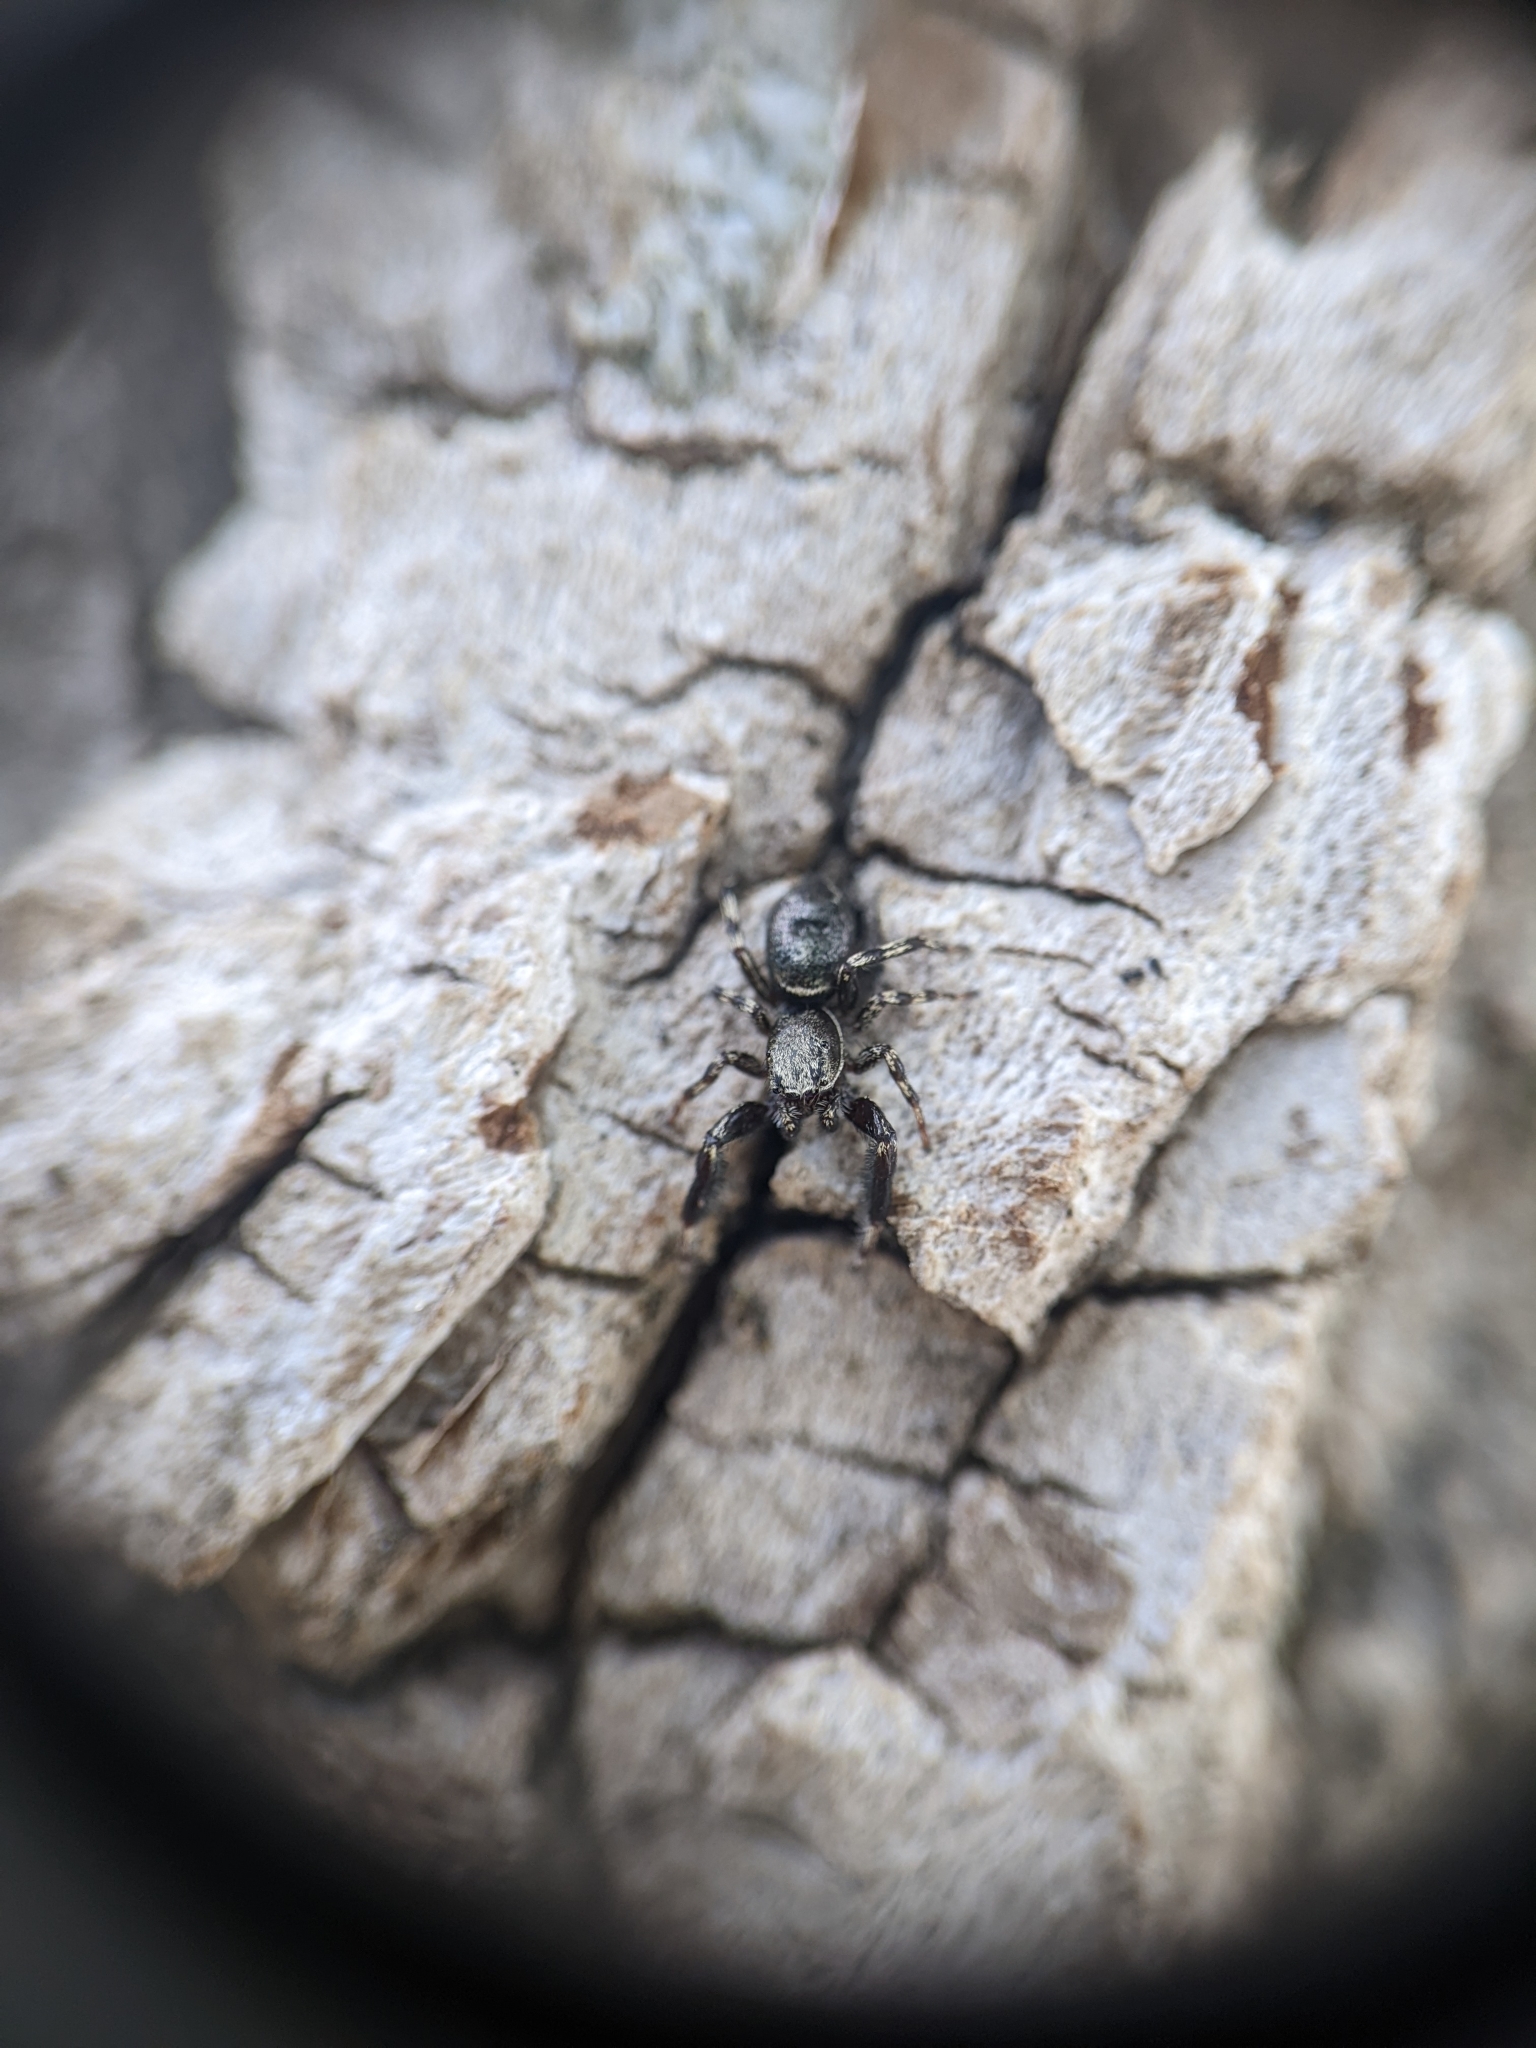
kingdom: Animalia
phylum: Arthropoda
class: Arachnida
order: Araneae
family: Salticidae
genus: Tutelina
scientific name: Tutelina harti
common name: Hart's jumping spider
